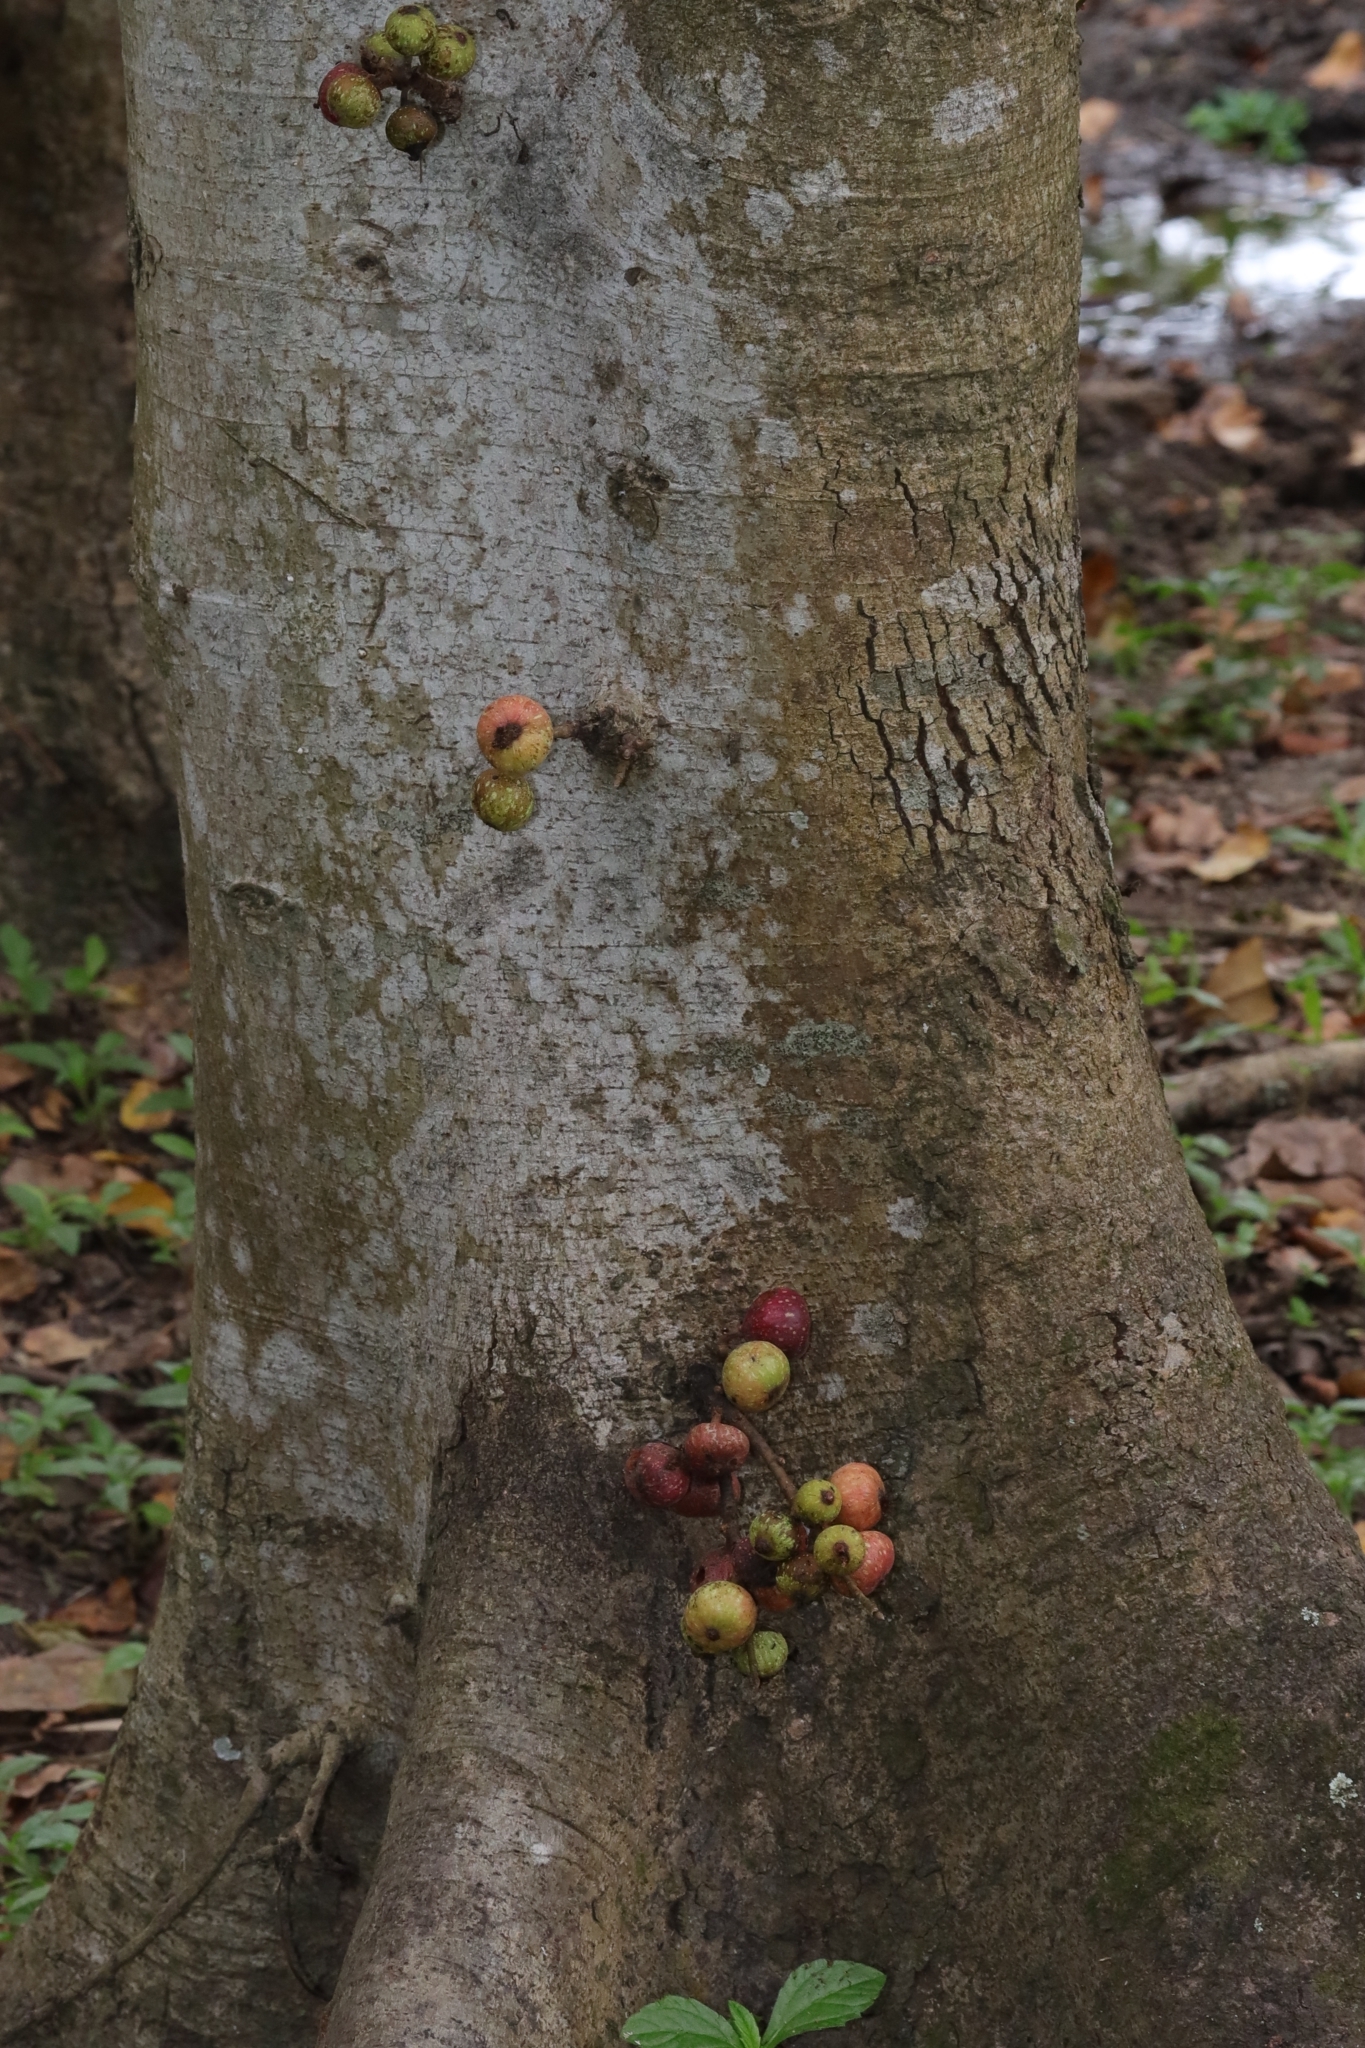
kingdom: Plantae
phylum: Tracheophyta
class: Magnoliopsida
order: Rosales
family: Moraceae
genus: Ficus
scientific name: Ficus sur
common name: Cape fig
